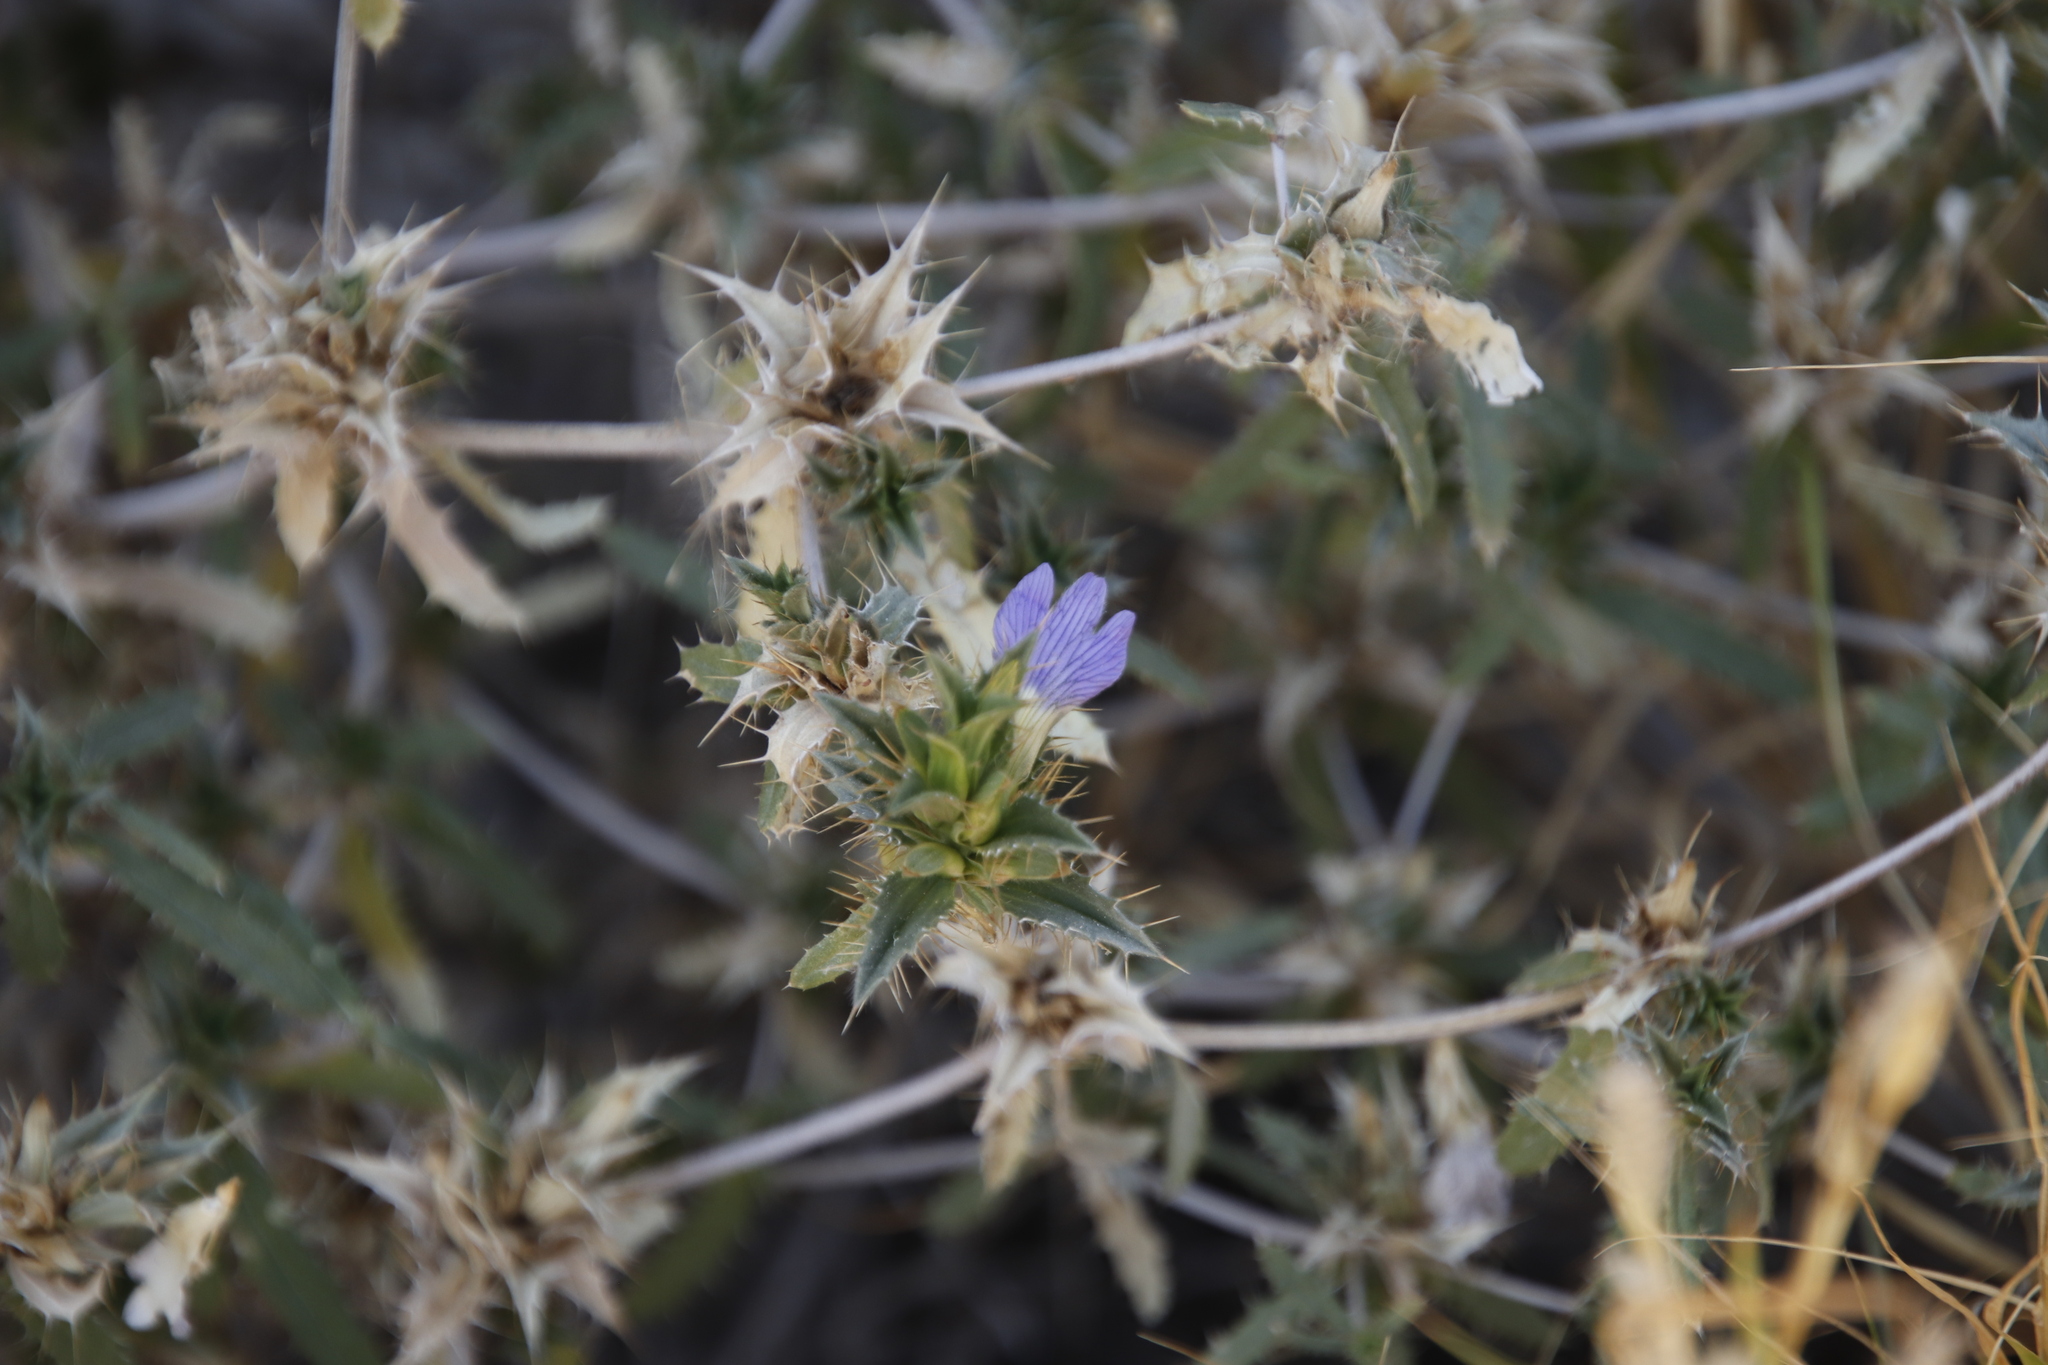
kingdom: Plantae
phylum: Tracheophyta
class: Magnoliopsida
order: Lamiales
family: Acanthaceae
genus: Blepharis
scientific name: Blepharis obmitrata
